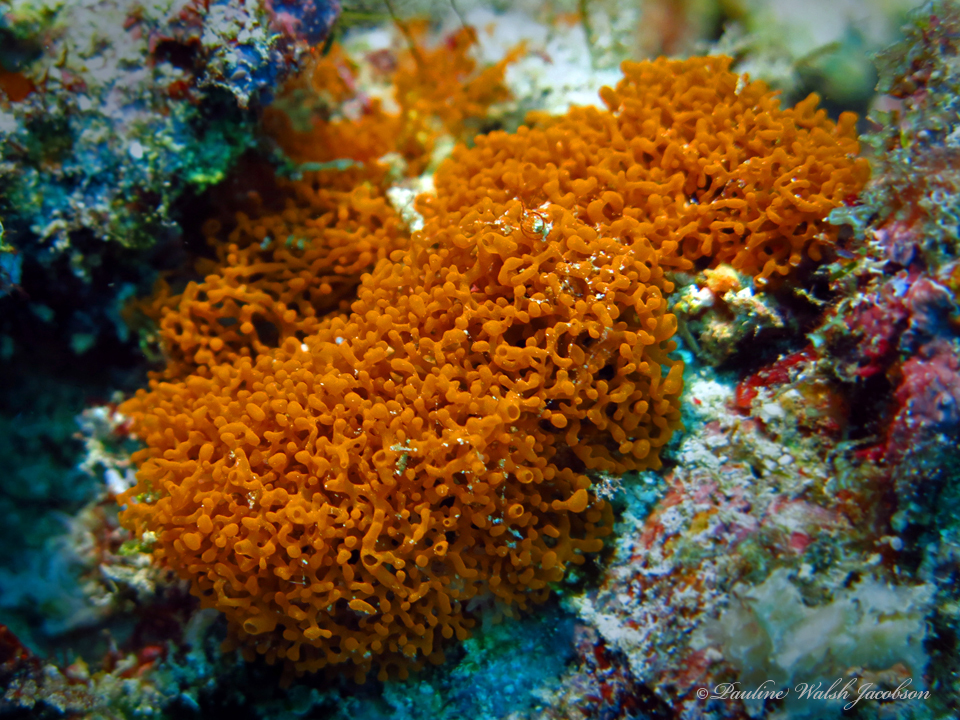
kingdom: Animalia
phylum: Porifera
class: Calcarea
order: Clathrinida
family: Clathrinidae
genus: Janusya
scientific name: Janusya tubuloreticulosa
